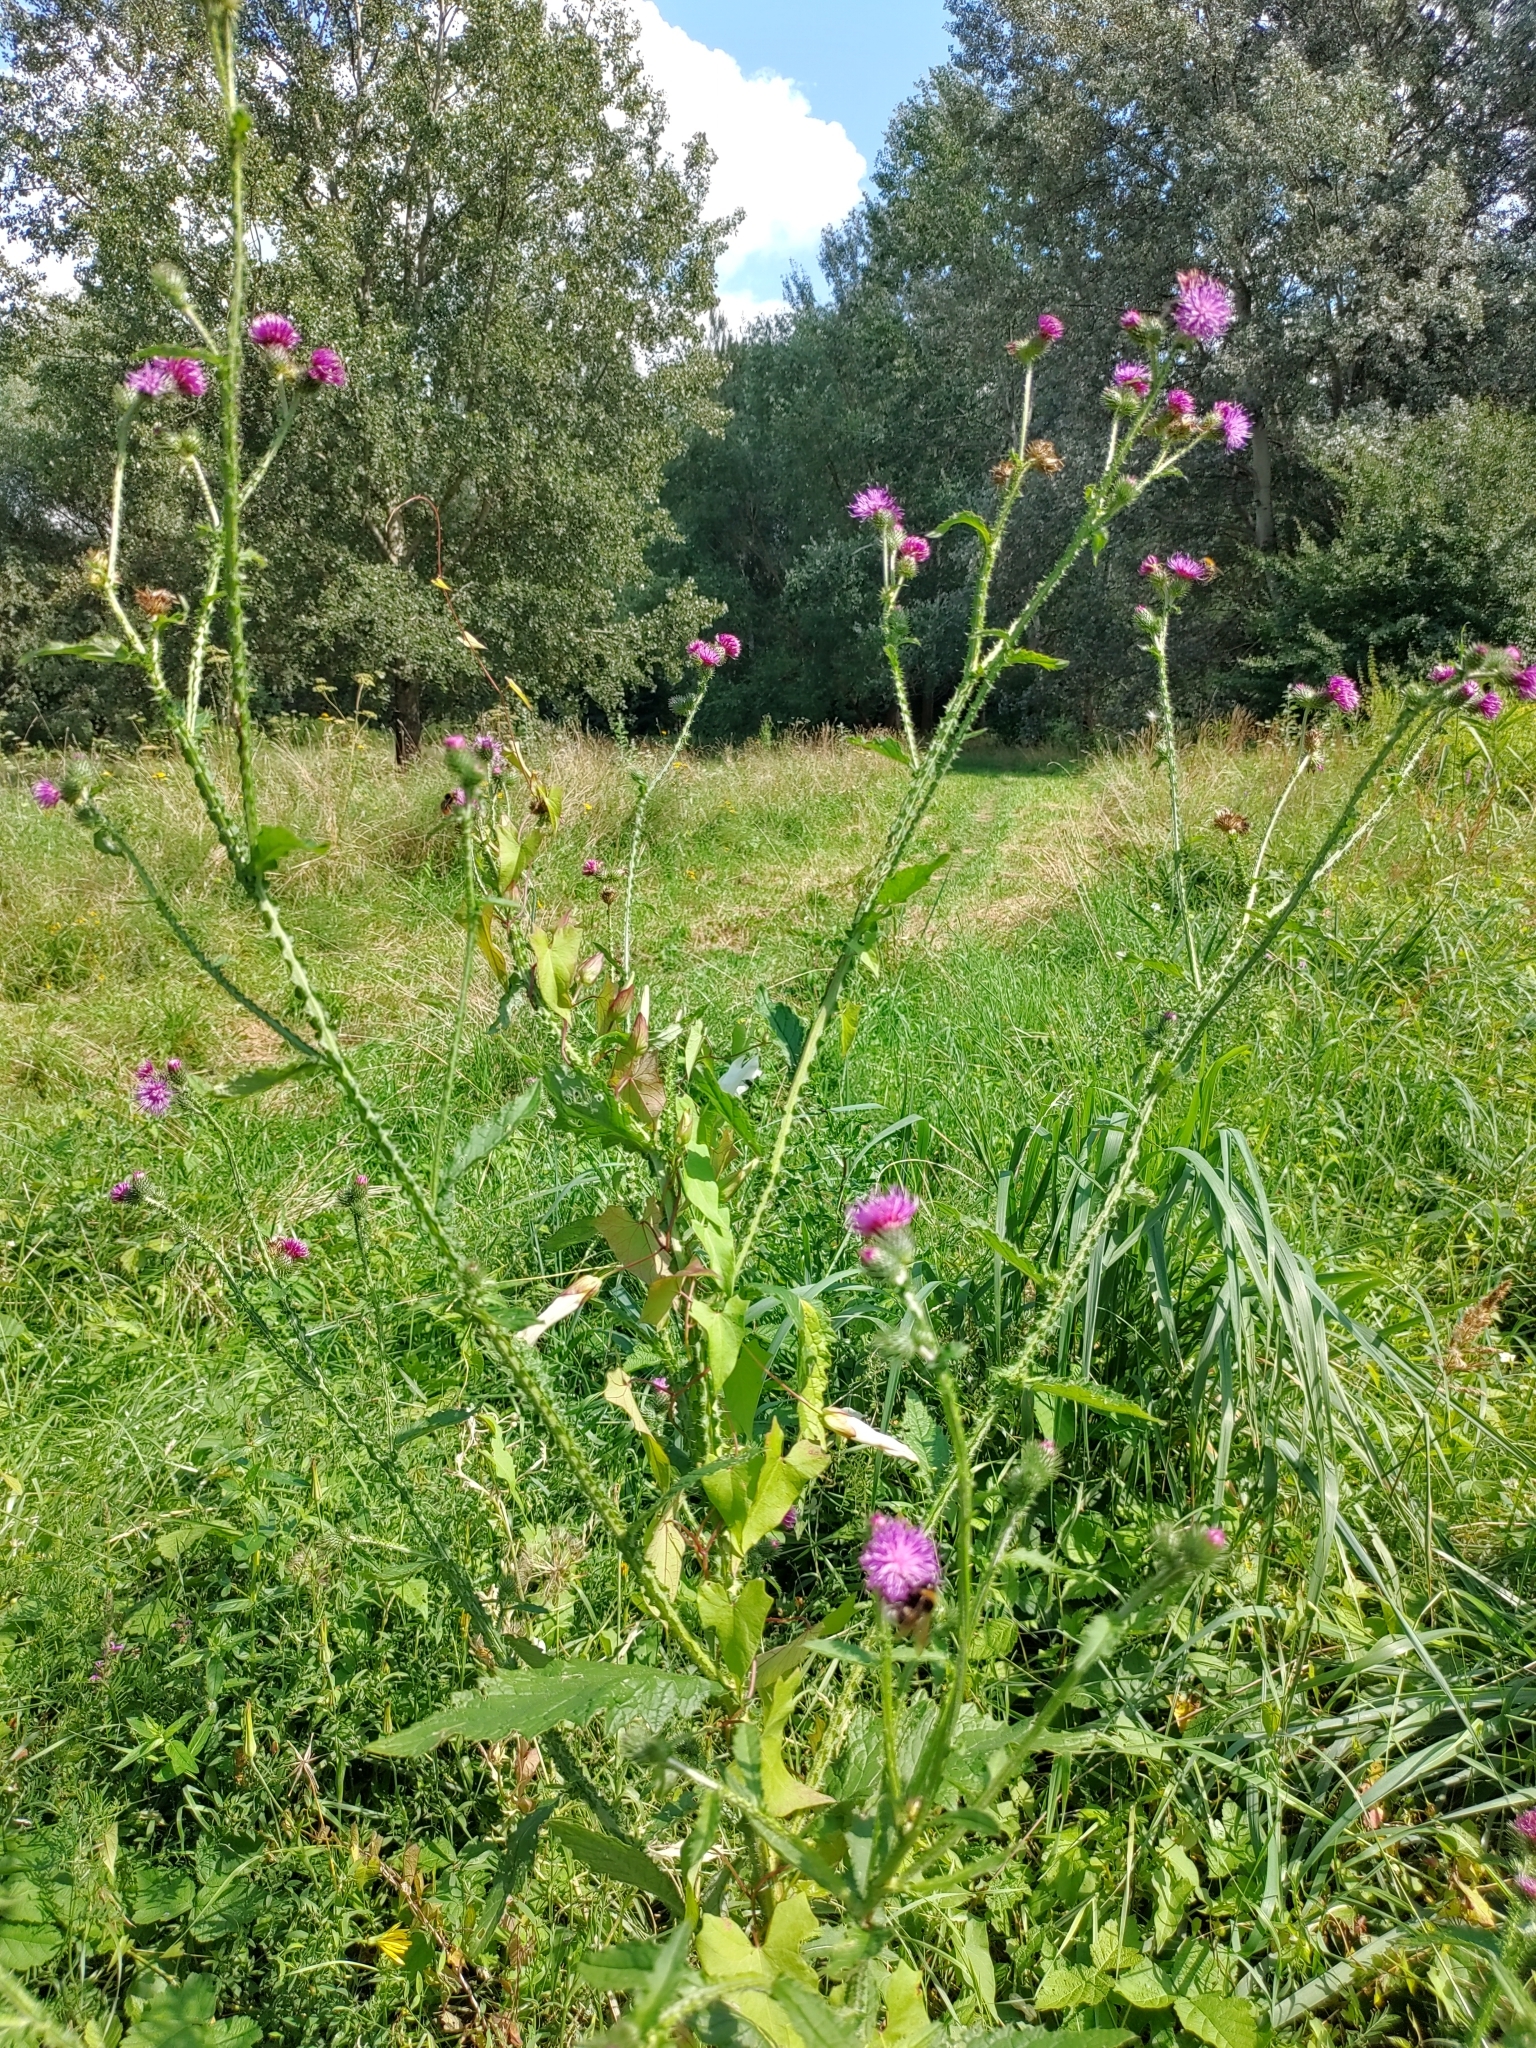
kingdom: Plantae
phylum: Tracheophyta
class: Magnoliopsida
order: Asterales
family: Asteraceae
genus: Carduus
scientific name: Carduus crispus
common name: Welted thistle
